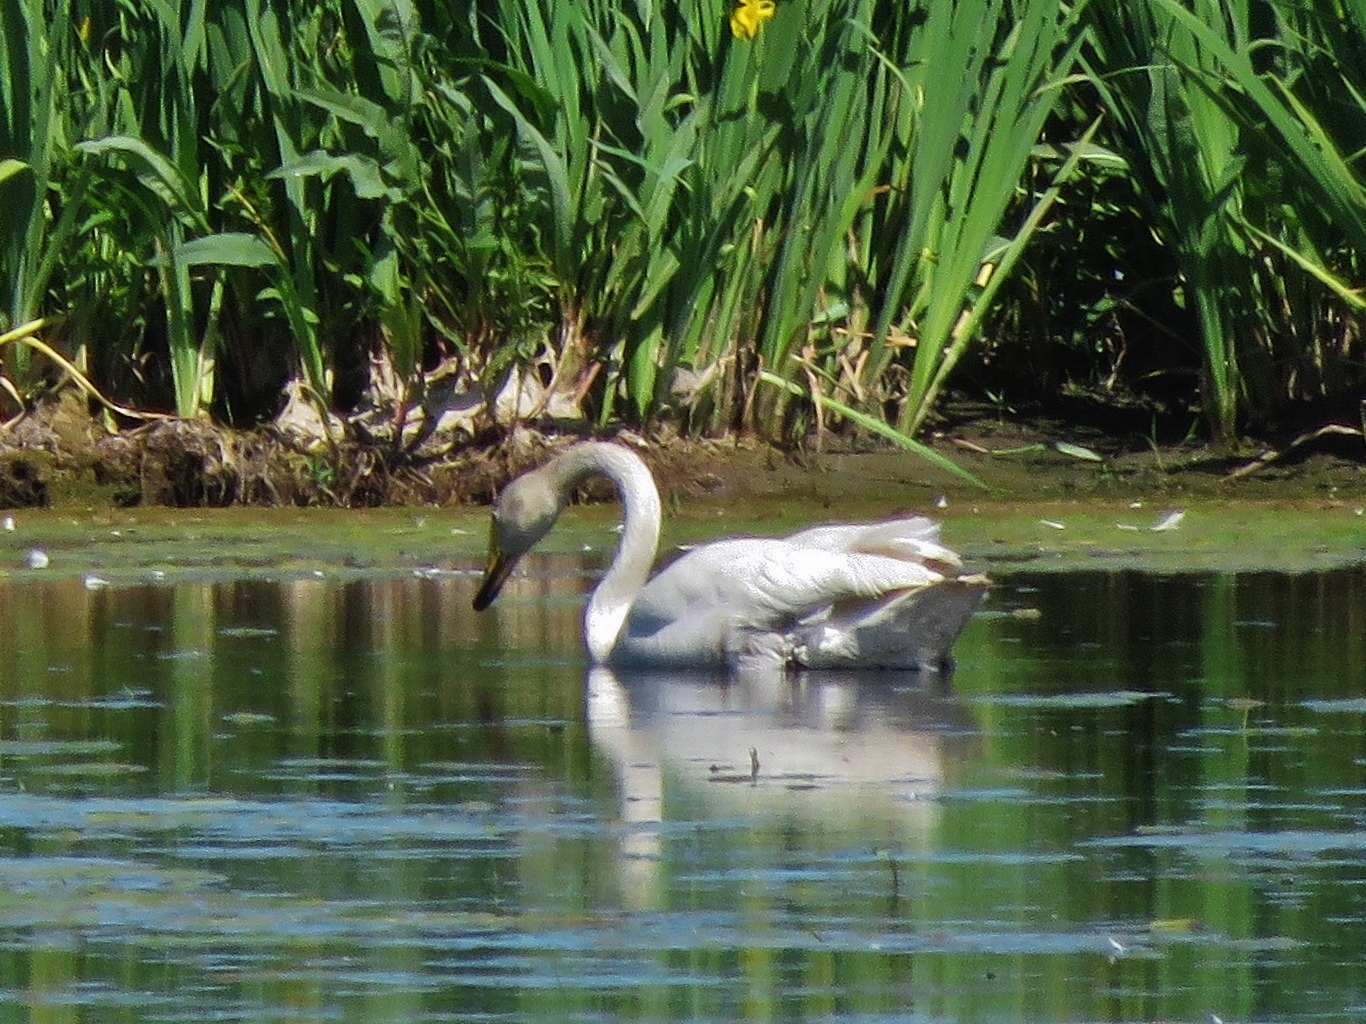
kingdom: Animalia
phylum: Chordata
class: Aves
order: Anseriformes
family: Anatidae
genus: Cygnus
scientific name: Cygnus cygnus
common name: Whooper swan
